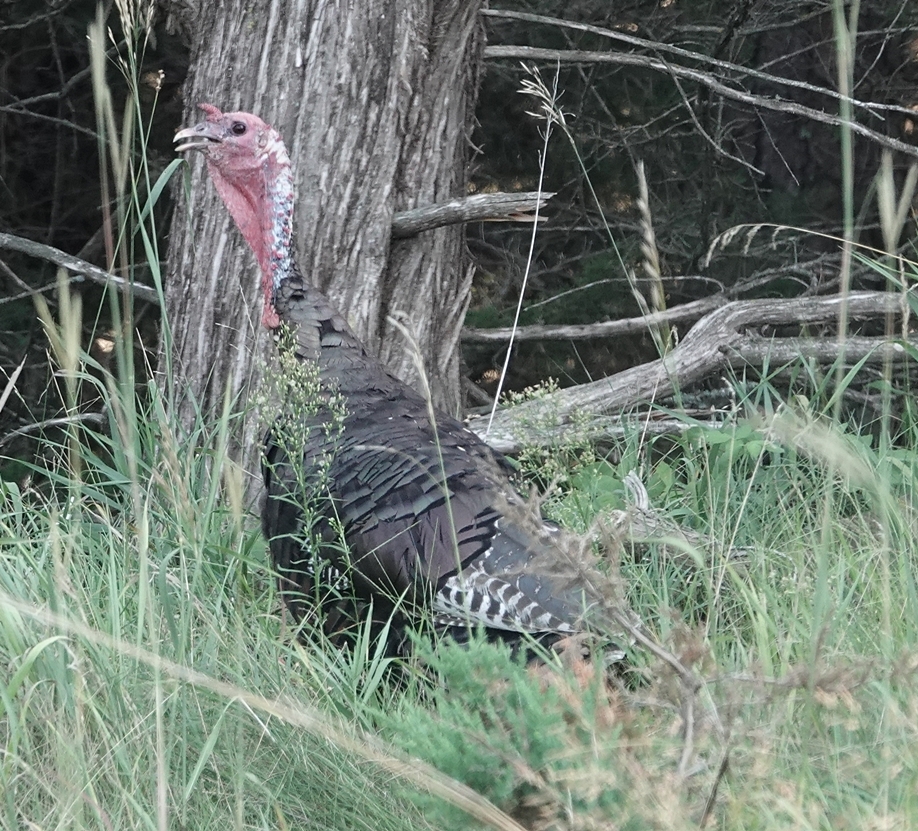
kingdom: Animalia
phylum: Chordata
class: Aves
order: Galliformes
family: Phasianidae
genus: Meleagris
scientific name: Meleagris gallopavo
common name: Wild turkey
